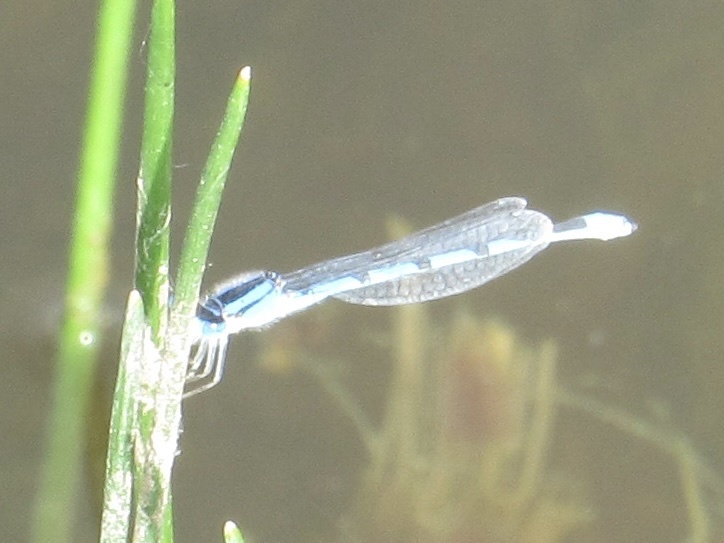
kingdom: Animalia
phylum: Arthropoda
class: Insecta
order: Odonata
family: Coenagrionidae
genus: Enallagma
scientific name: Enallagma civile
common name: Damselfly
